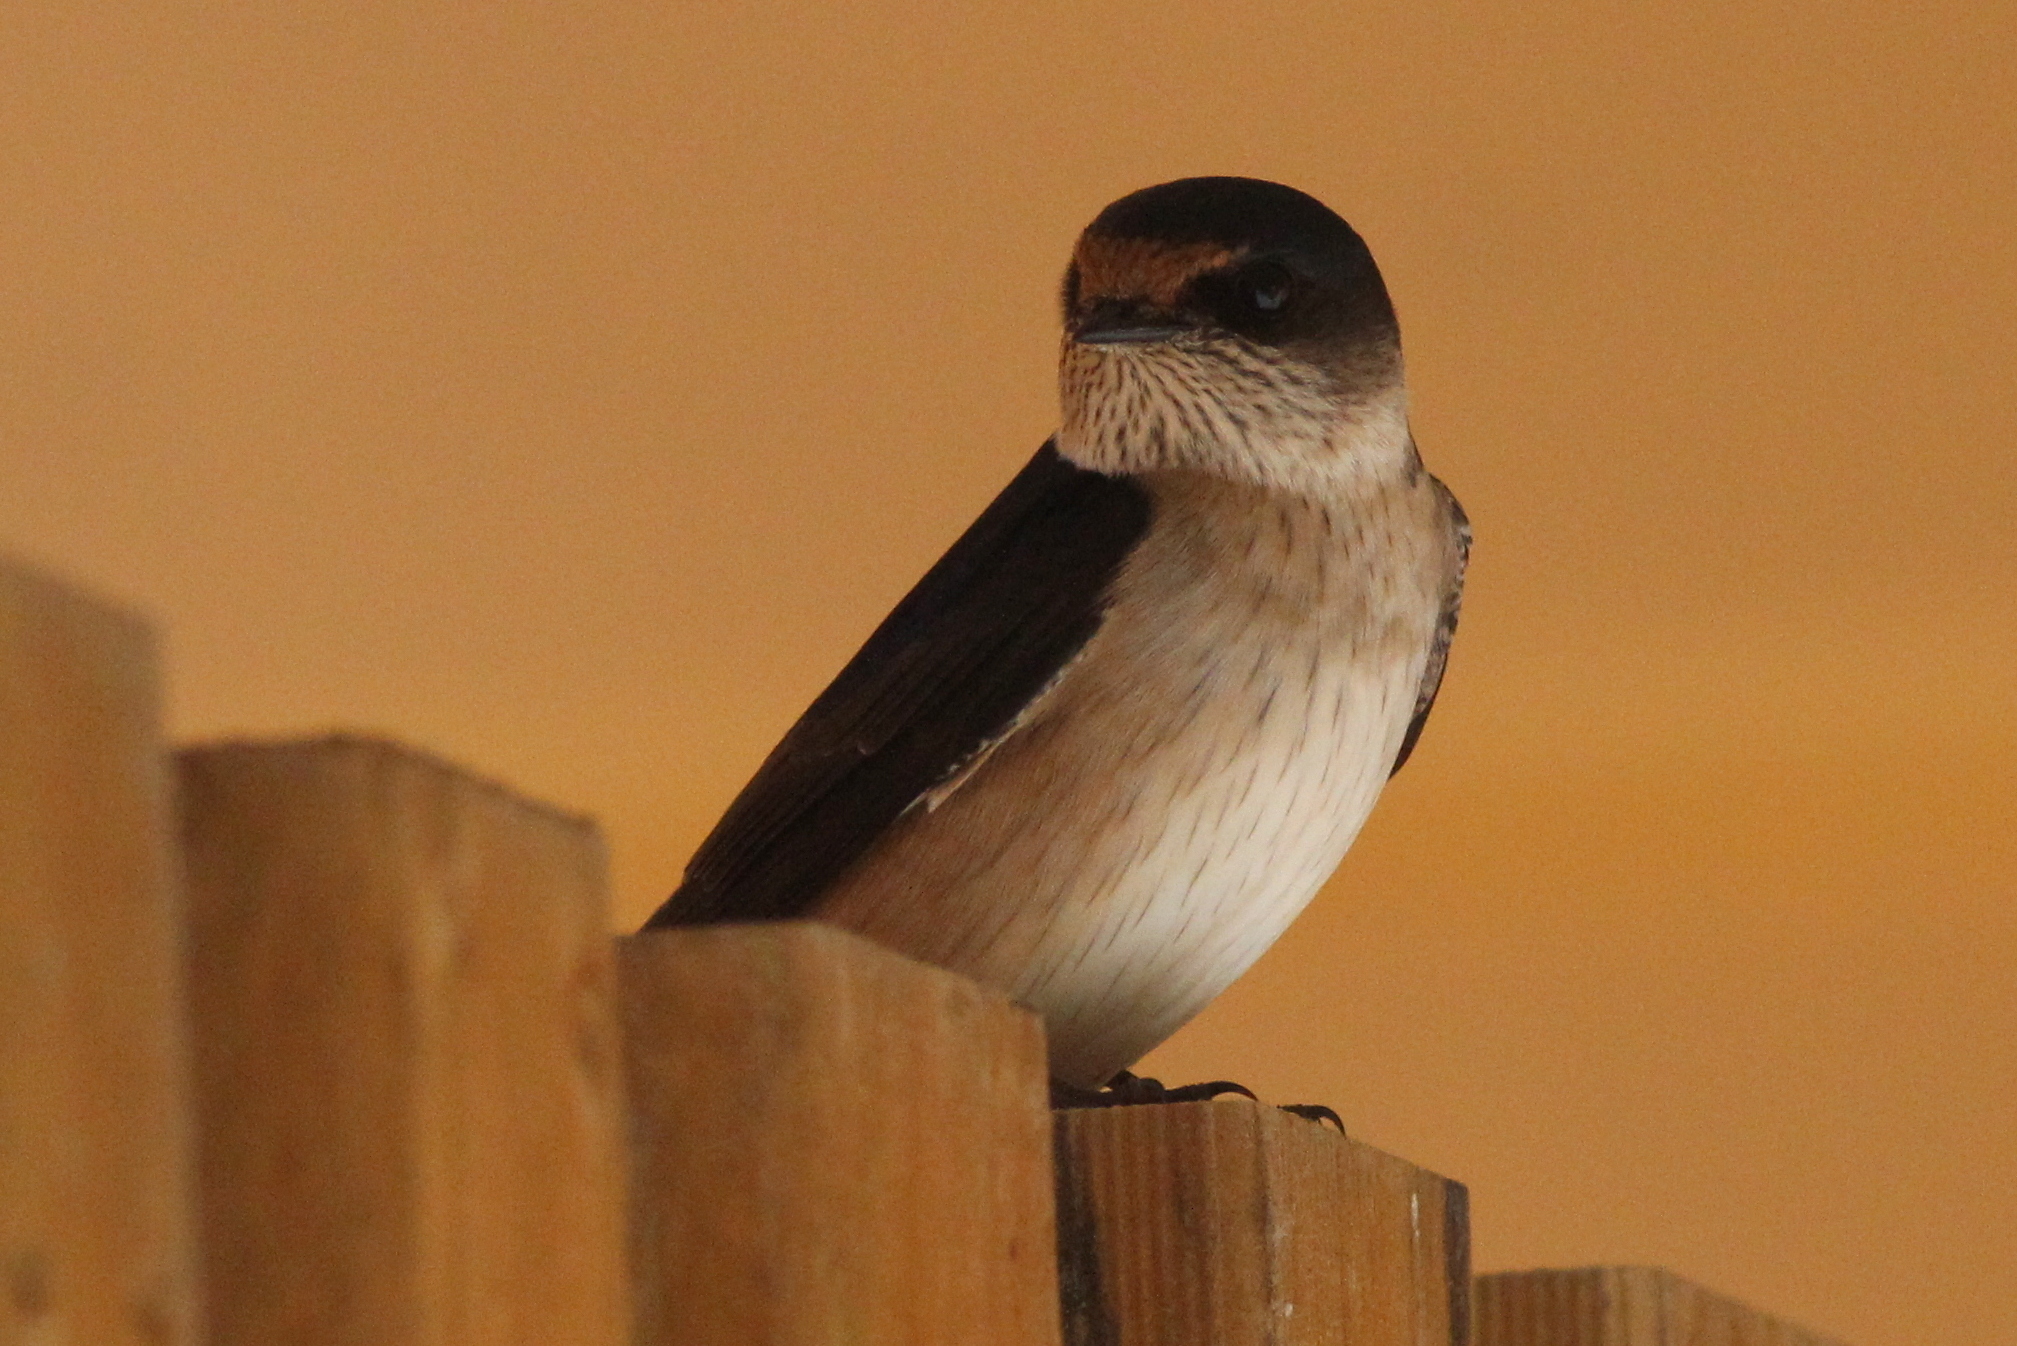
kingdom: Animalia
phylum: Chordata
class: Aves
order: Passeriformes
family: Hirundinidae
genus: Petrochelidon
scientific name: Petrochelidon nigricans
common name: Tree martin
